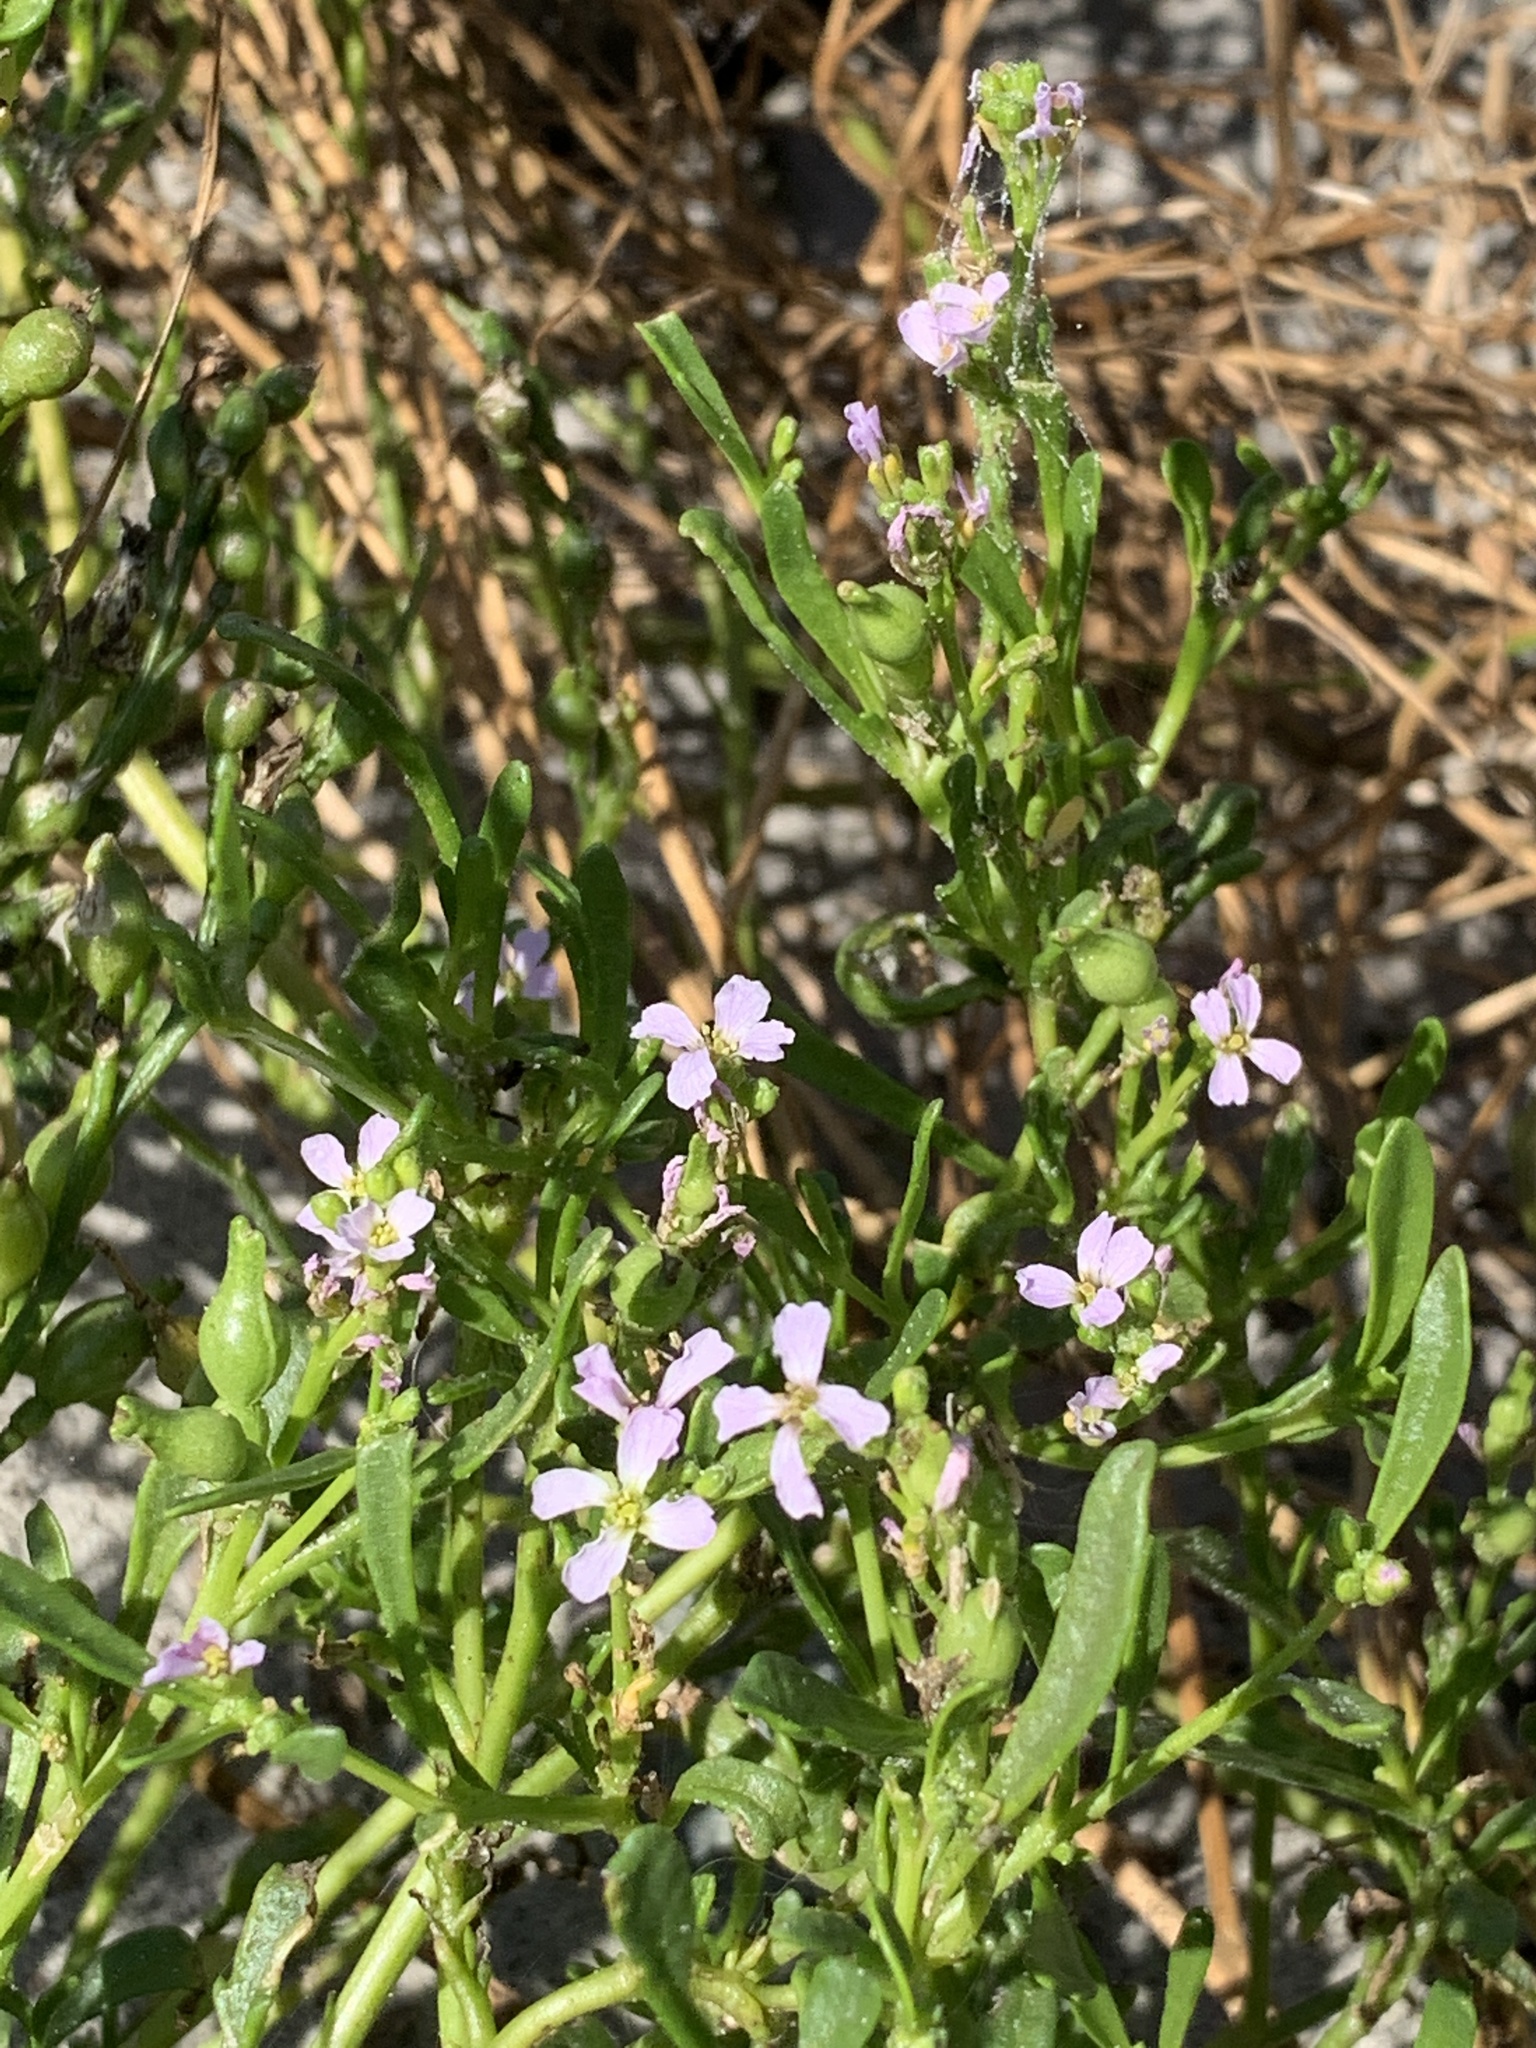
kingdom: Plantae
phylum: Tracheophyta
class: Magnoliopsida
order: Brassicales
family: Brassicaceae
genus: Cakile
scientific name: Cakile edentula
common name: American sea rocket
